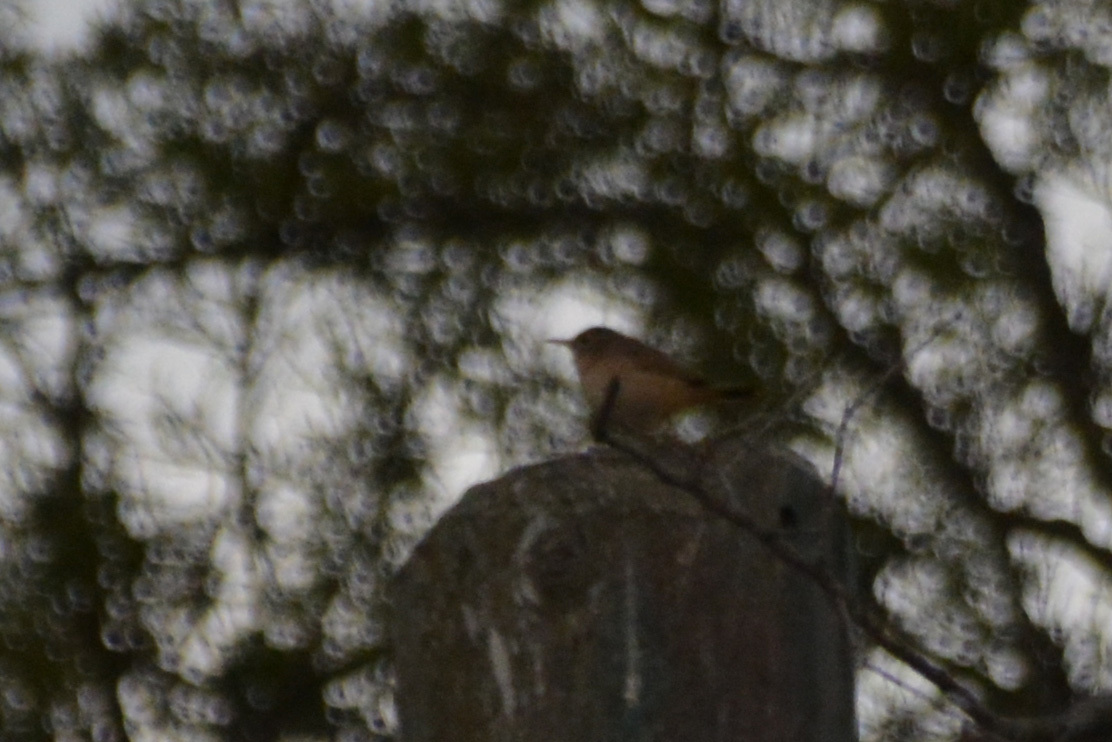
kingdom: Animalia
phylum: Chordata
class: Aves
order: Passeriformes
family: Troglodytidae
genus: Troglodytes
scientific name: Troglodytes aedon
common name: House wren
